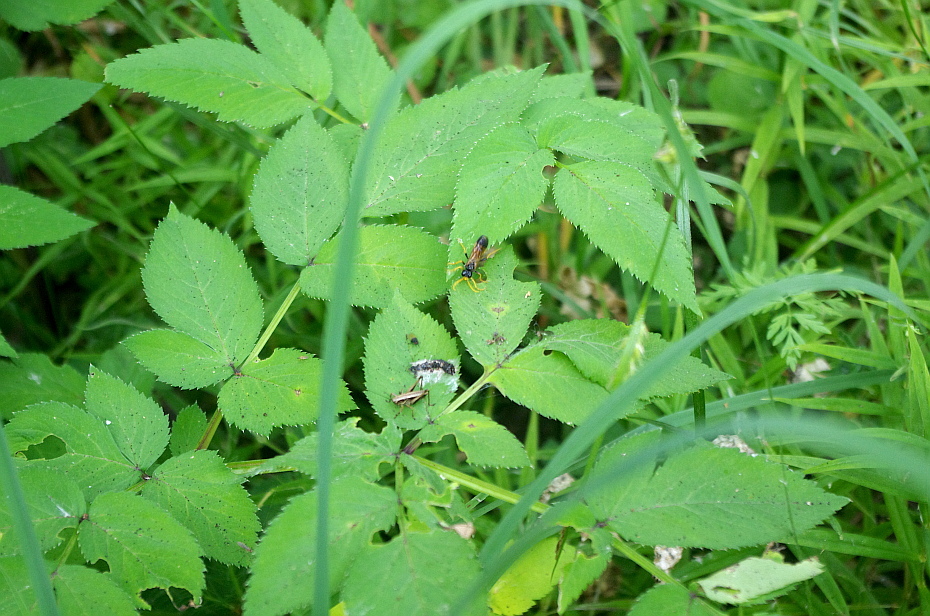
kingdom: Plantae
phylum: Tracheophyta
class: Magnoliopsida
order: Apiales
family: Apiaceae
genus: Aegopodium
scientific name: Aegopodium podagraria
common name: Ground-elder
